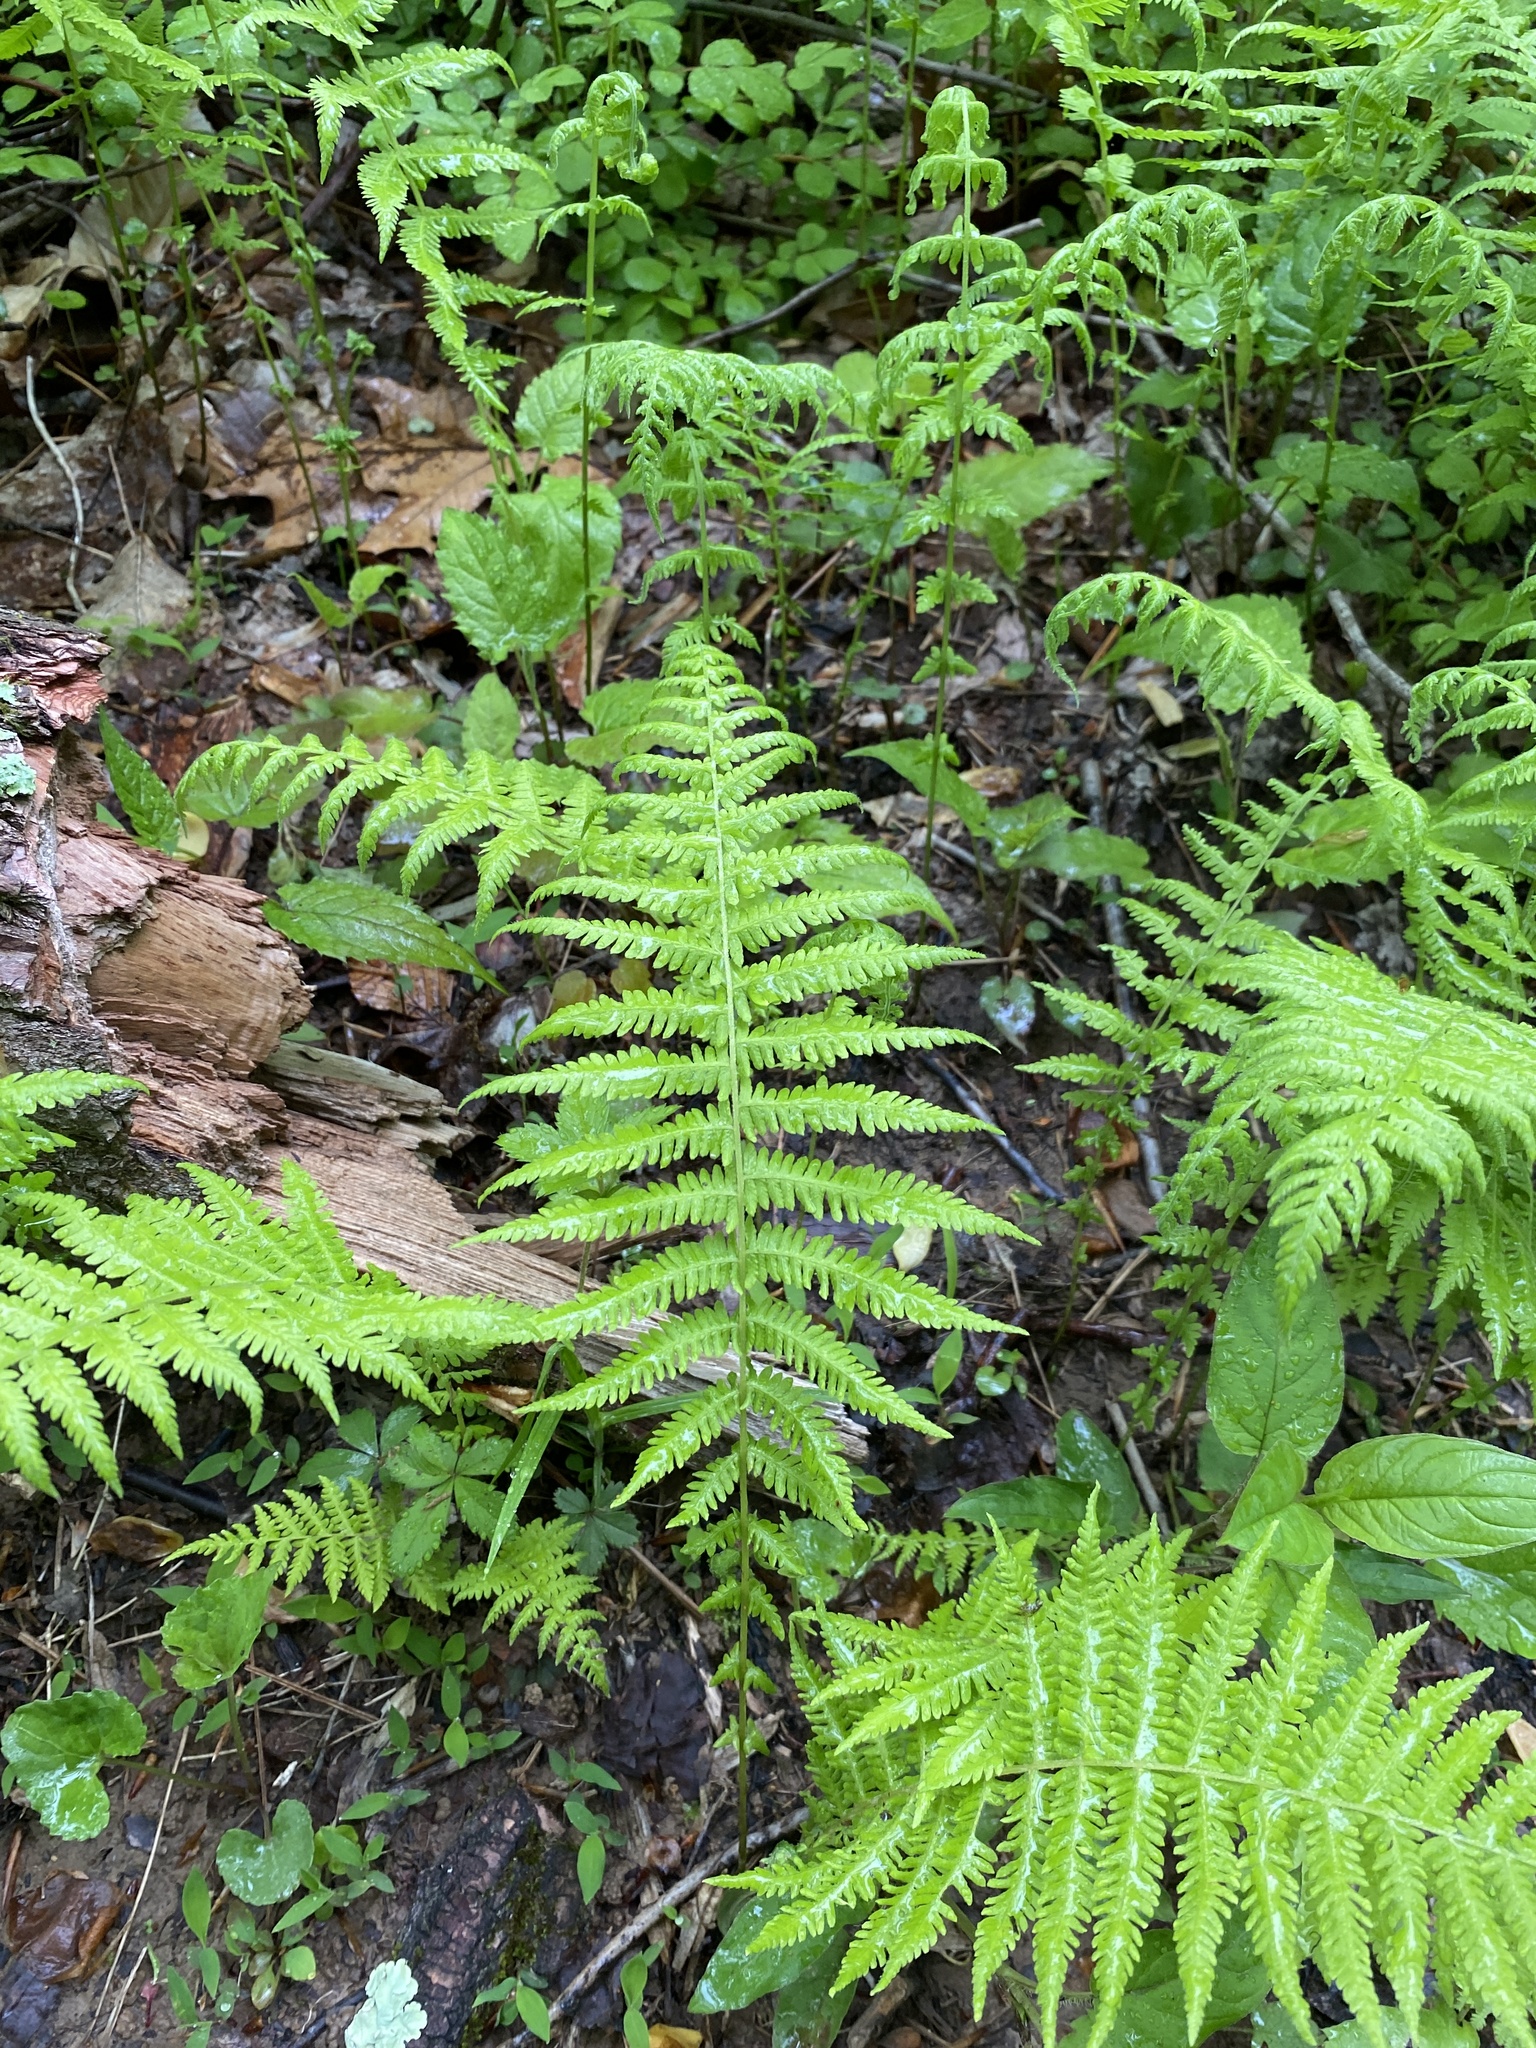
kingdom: Plantae
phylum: Tracheophyta
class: Polypodiopsida
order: Polypodiales
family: Thelypteridaceae
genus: Amauropelta
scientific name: Amauropelta noveboracensis
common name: New york fern
